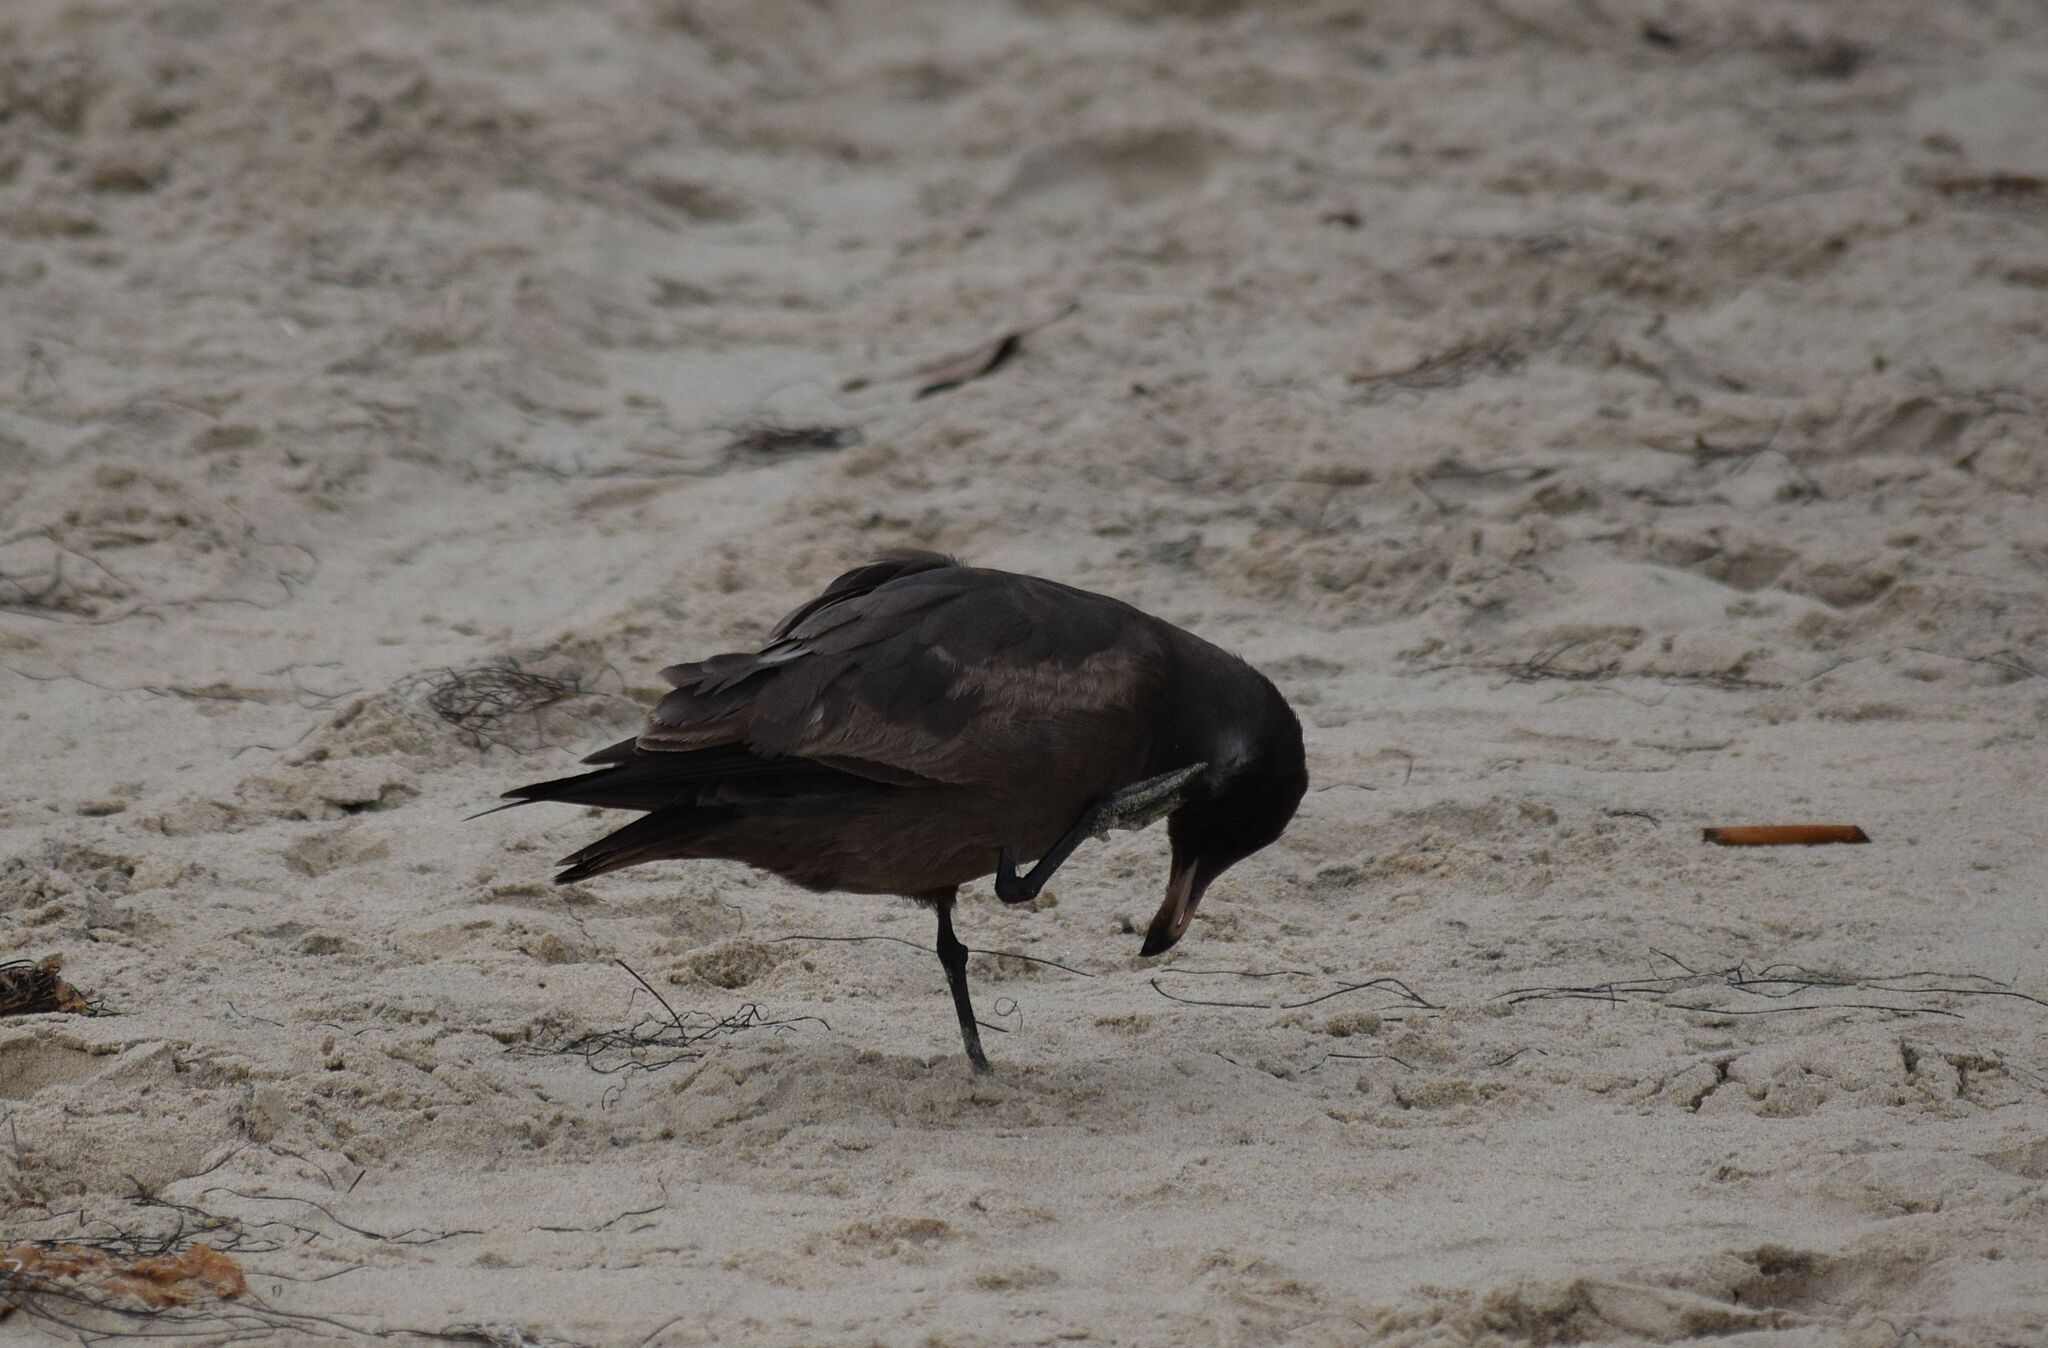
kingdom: Animalia
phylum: Chordata
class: Aves
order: Charadriiformes
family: Laridae
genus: Larus
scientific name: Larus heermanni
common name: Heermann's gull
